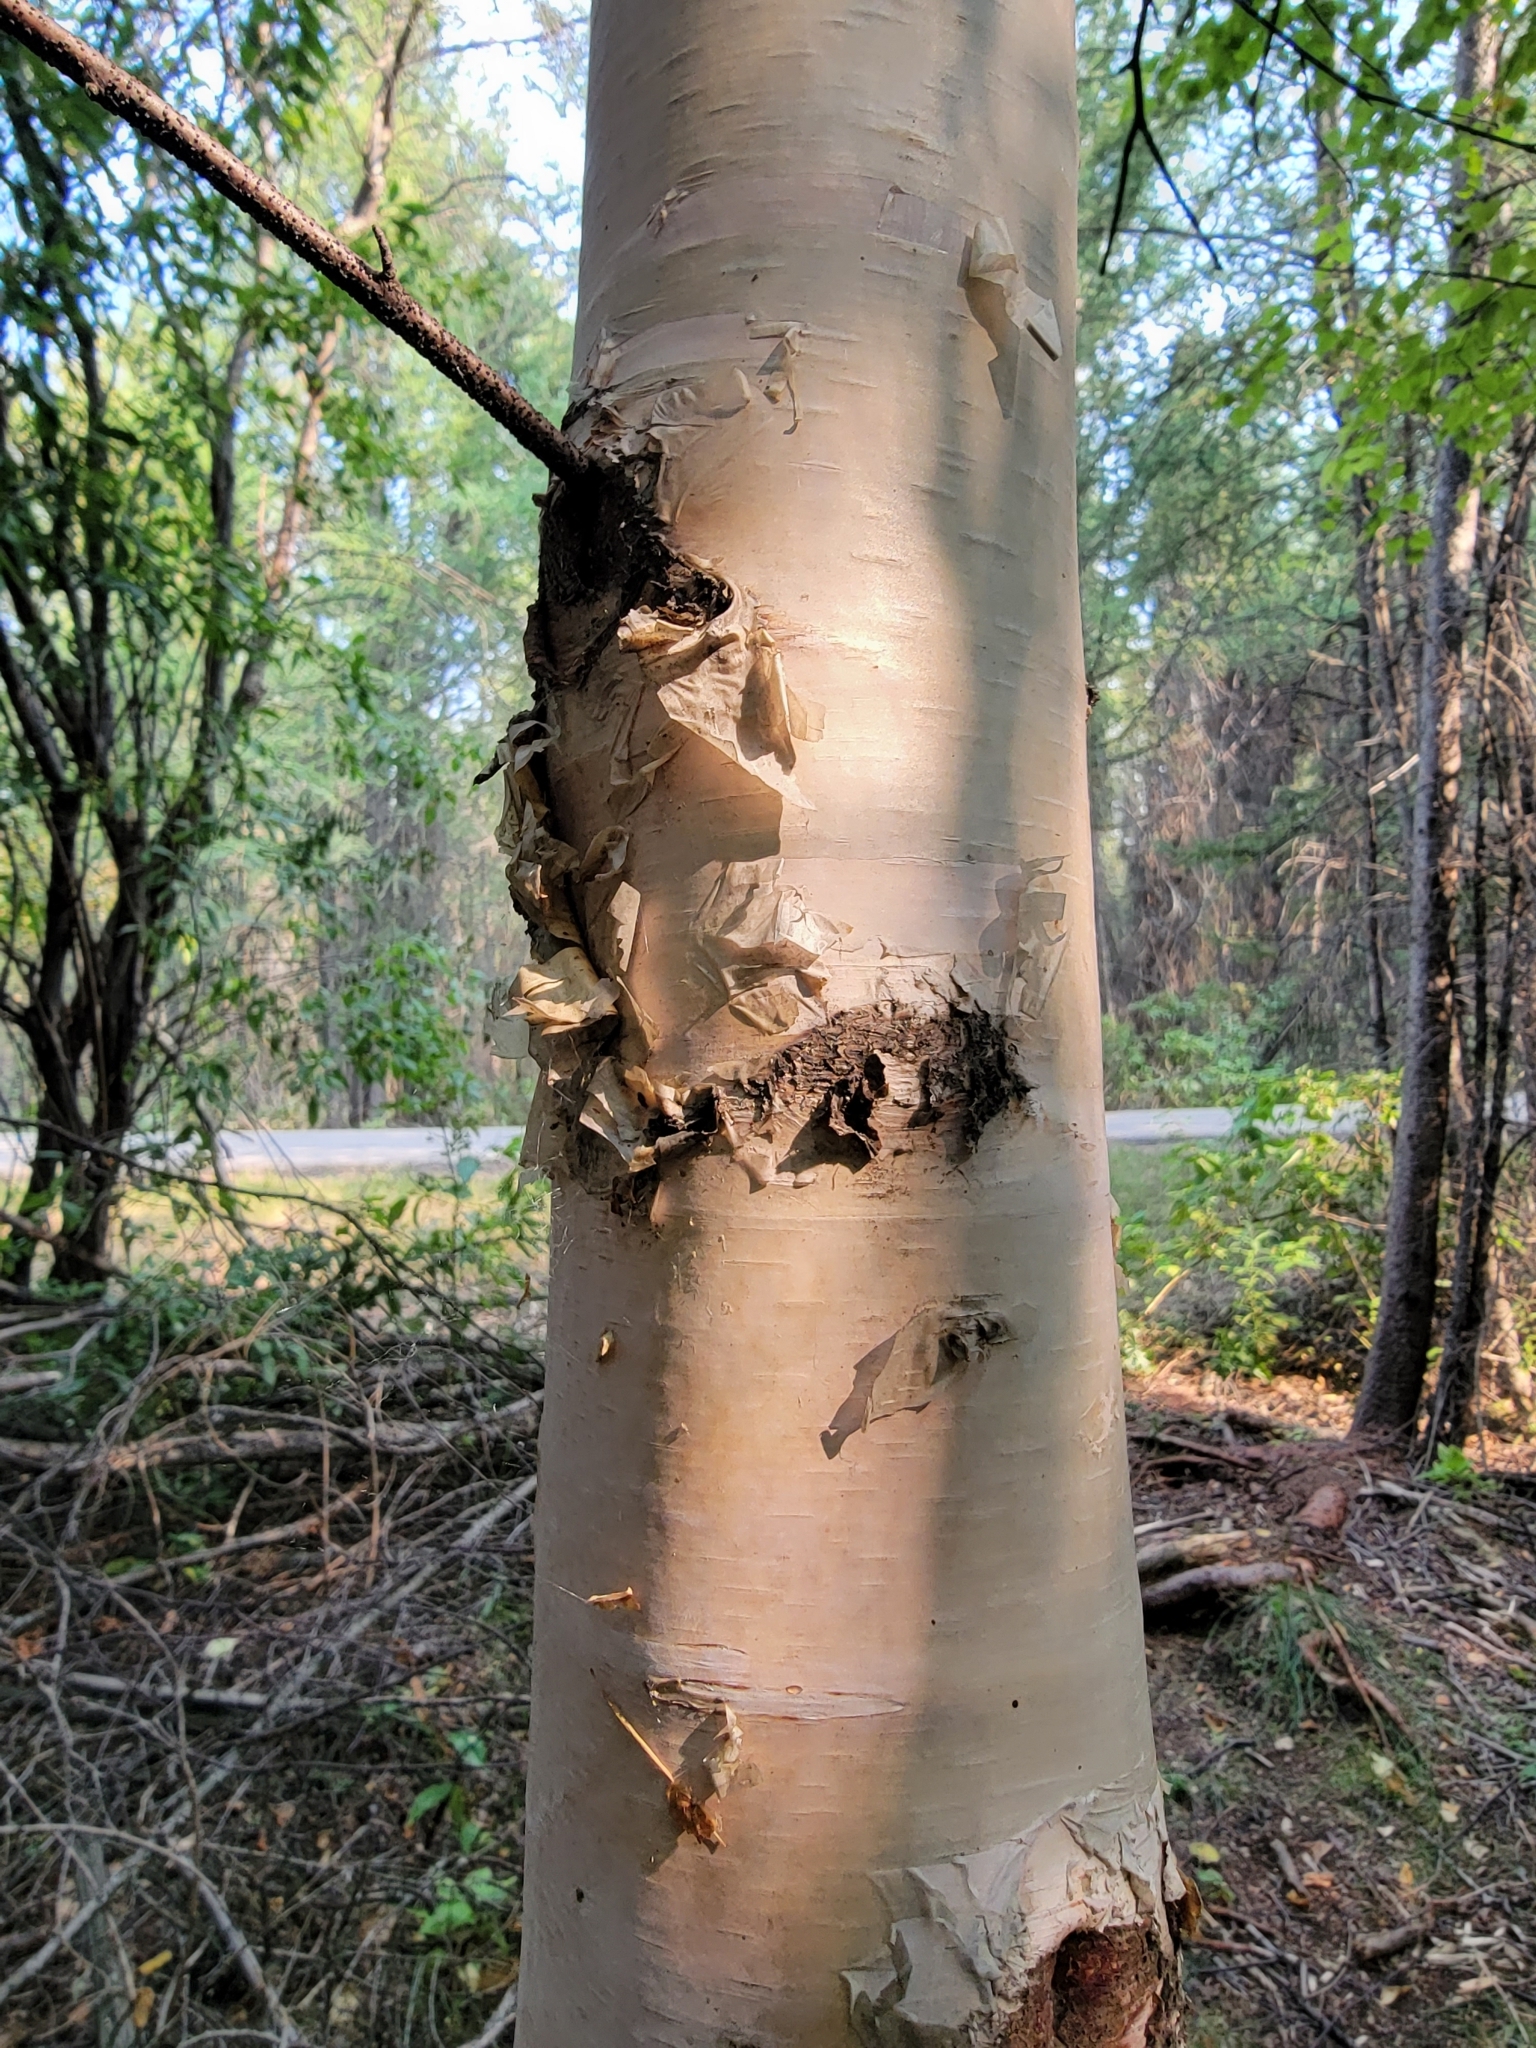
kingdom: Plantae
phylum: Tracheophyta
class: Magnoliopsida
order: Fagales
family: Betulaceae
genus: Betula
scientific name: Betula papyrifera
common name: Paper birch
